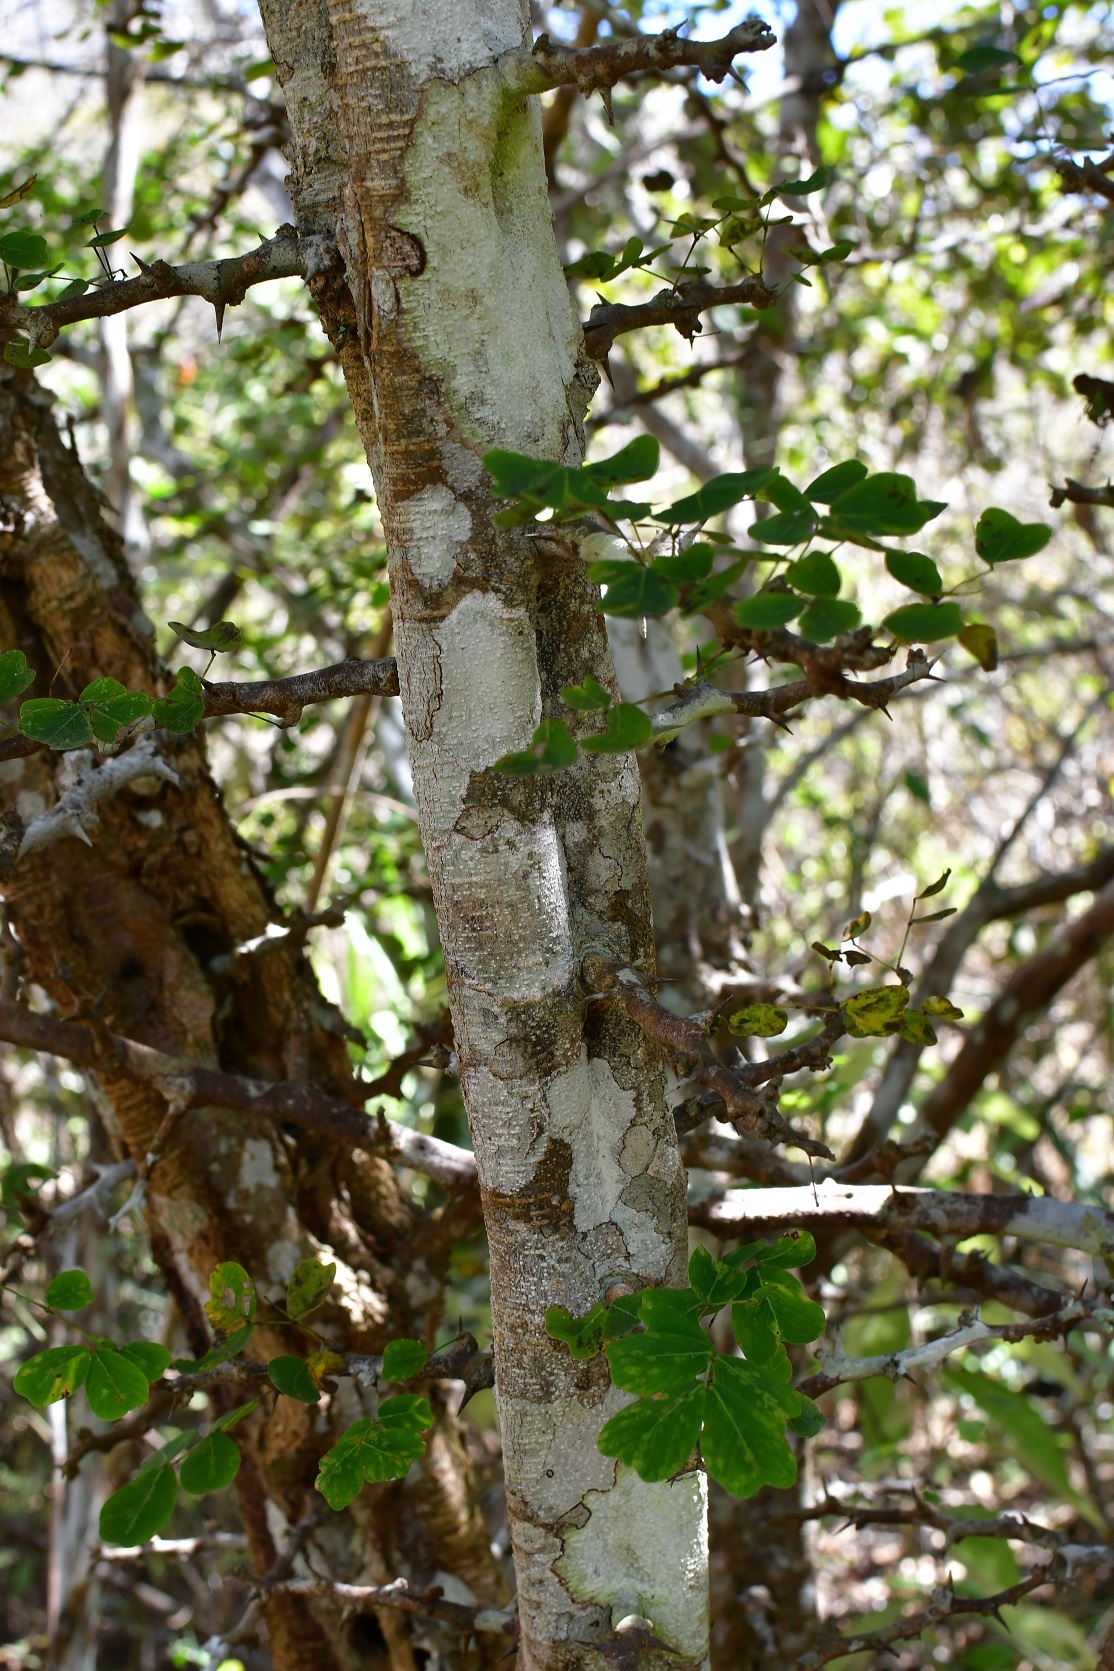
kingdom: Plantae
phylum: Tracheophyta
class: Magnoliopsida
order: Fabales
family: Fabaceae
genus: Haematoxylum
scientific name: Haematoxylum brasiletto
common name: Peachwood
